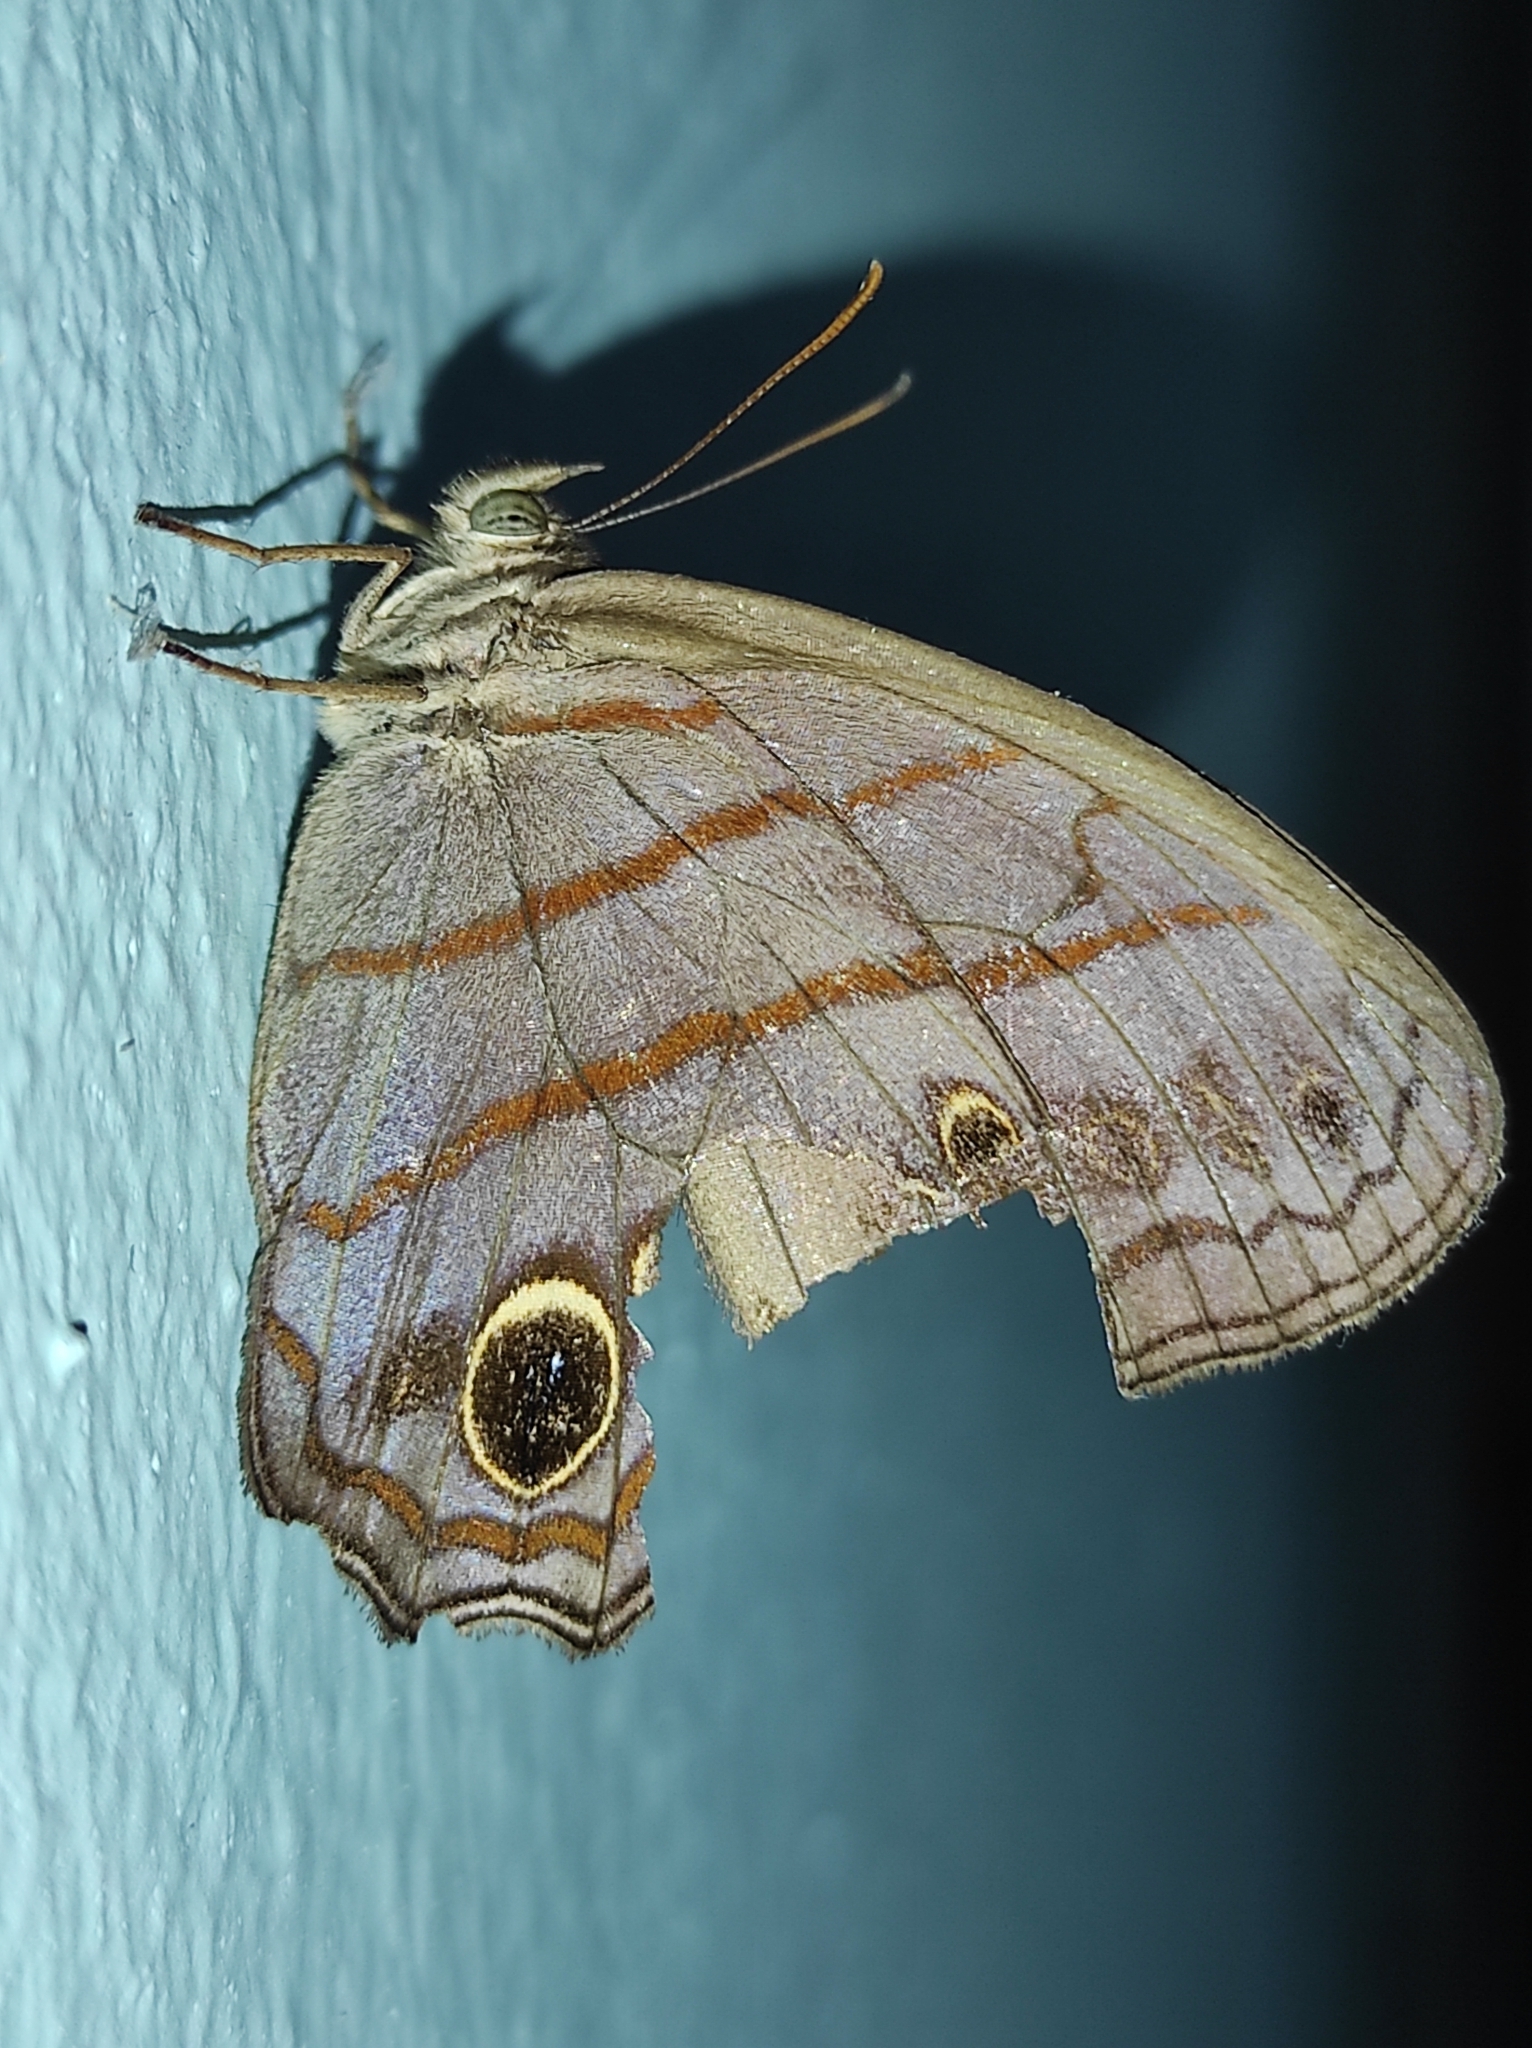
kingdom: Animalia
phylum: Arthropoda
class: Insecta
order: Lepidoptera
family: Nymphalidae
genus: Magneuptychia
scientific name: Magneuptychia libye
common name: Blue-gray satyr
